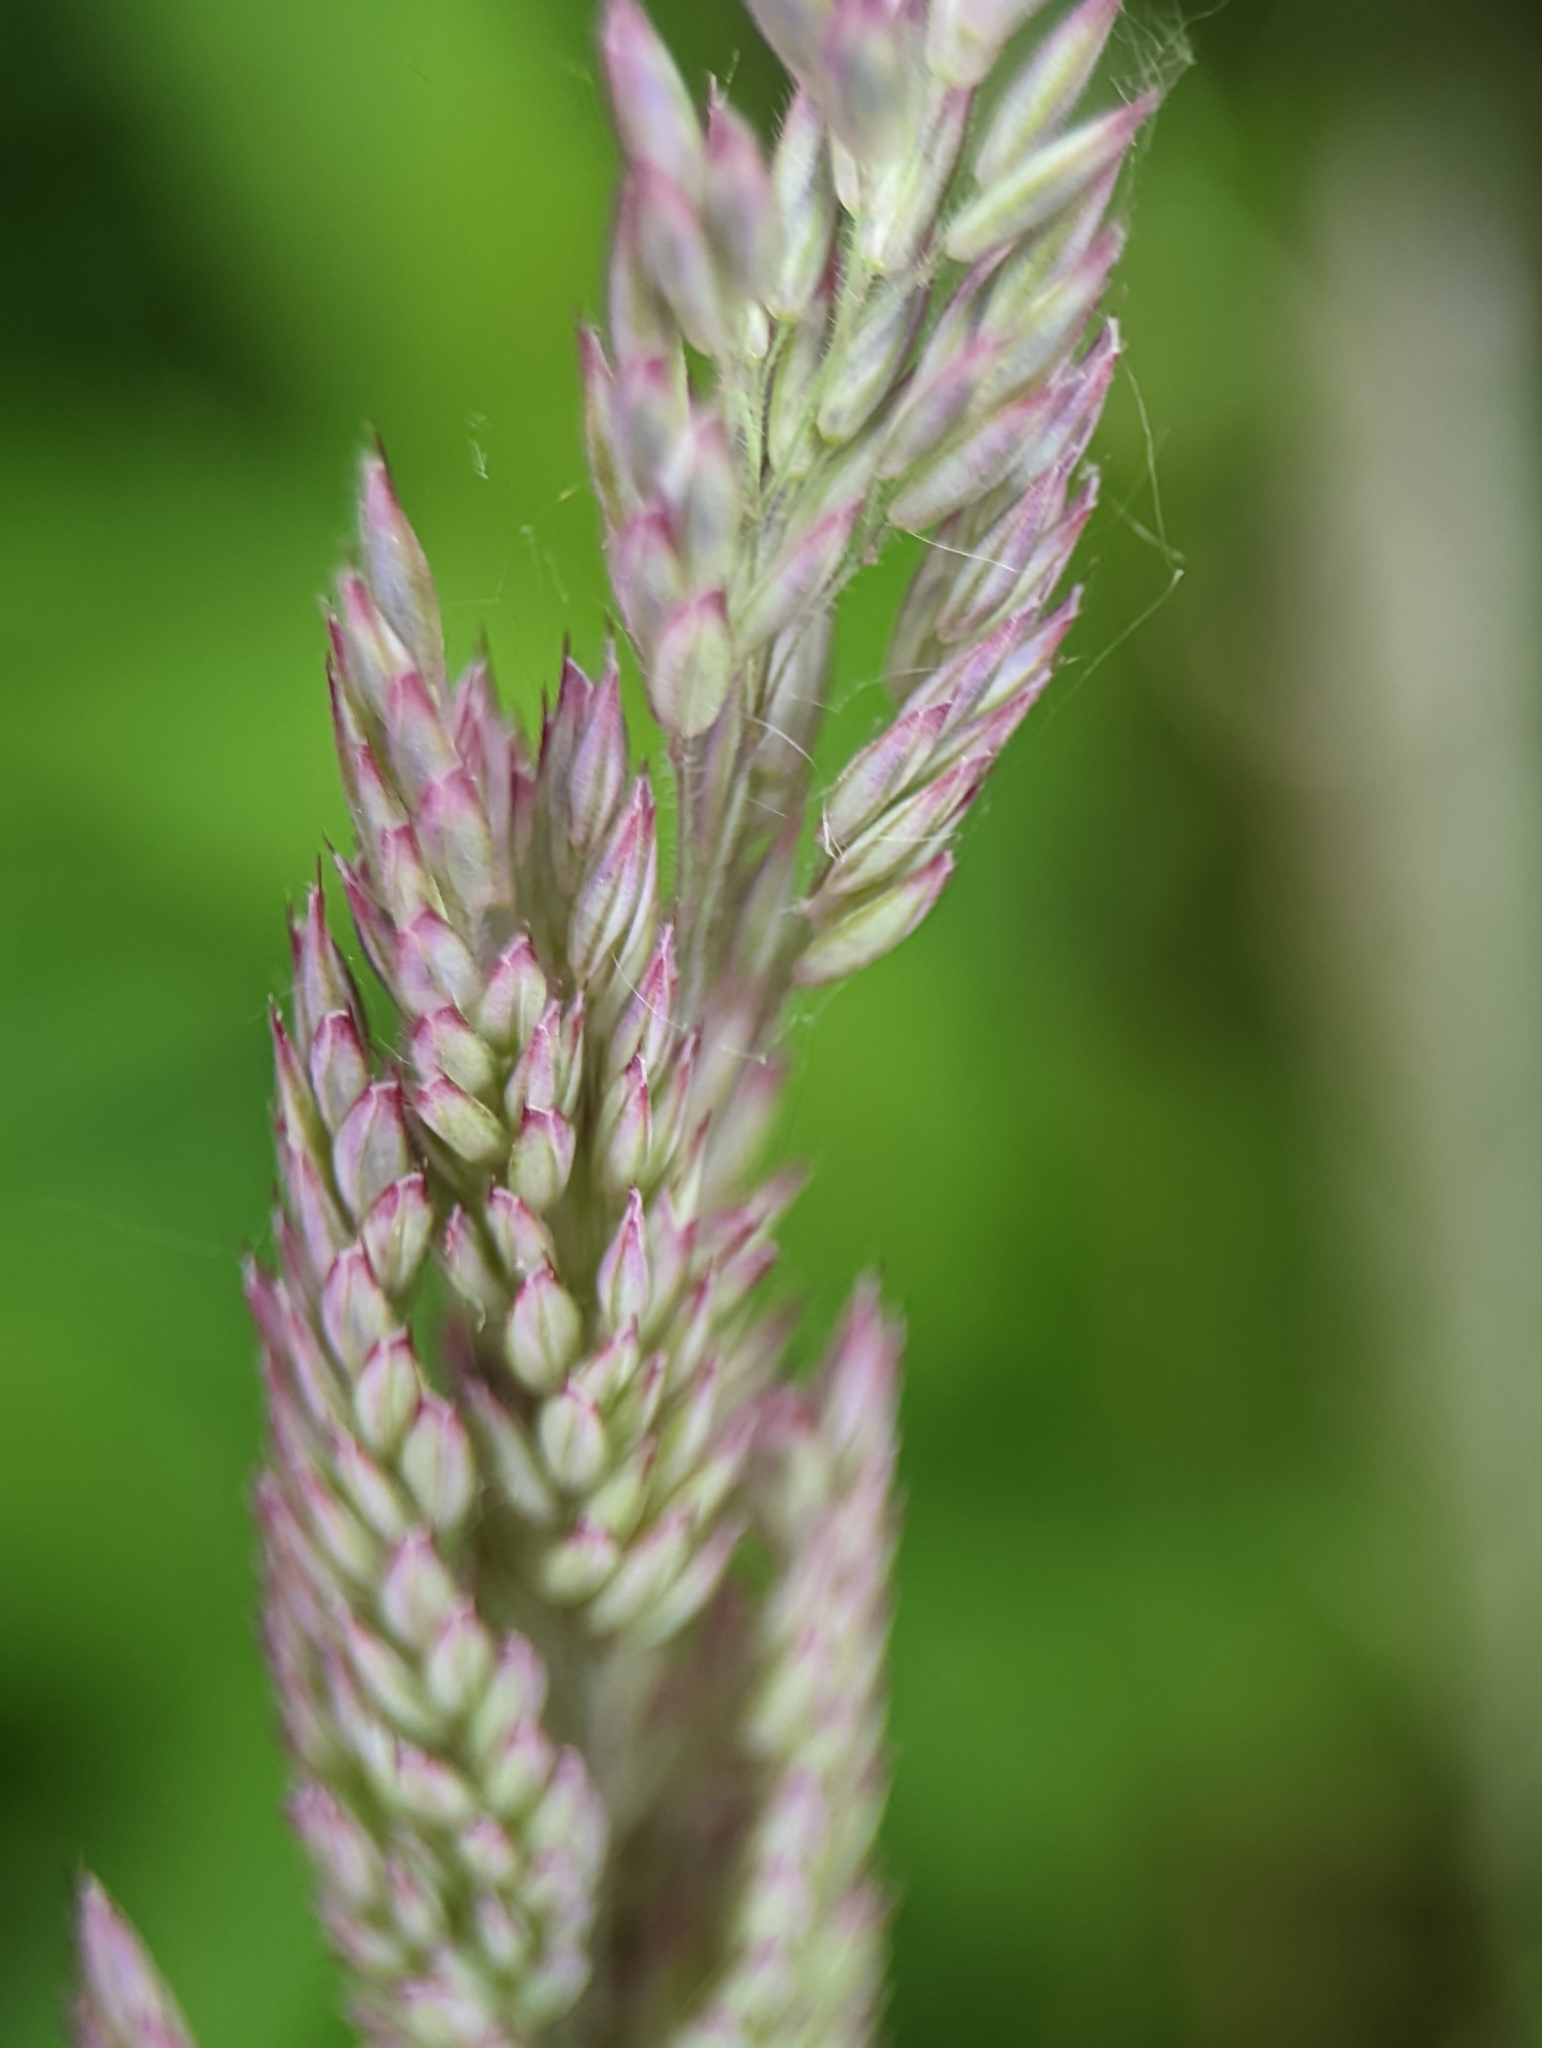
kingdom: Plantae
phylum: Tracheophyta
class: Liliopsida
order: Poales
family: Poaceae
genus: Holcus
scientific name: Holcus lanatus
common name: Yorkshire-fog
